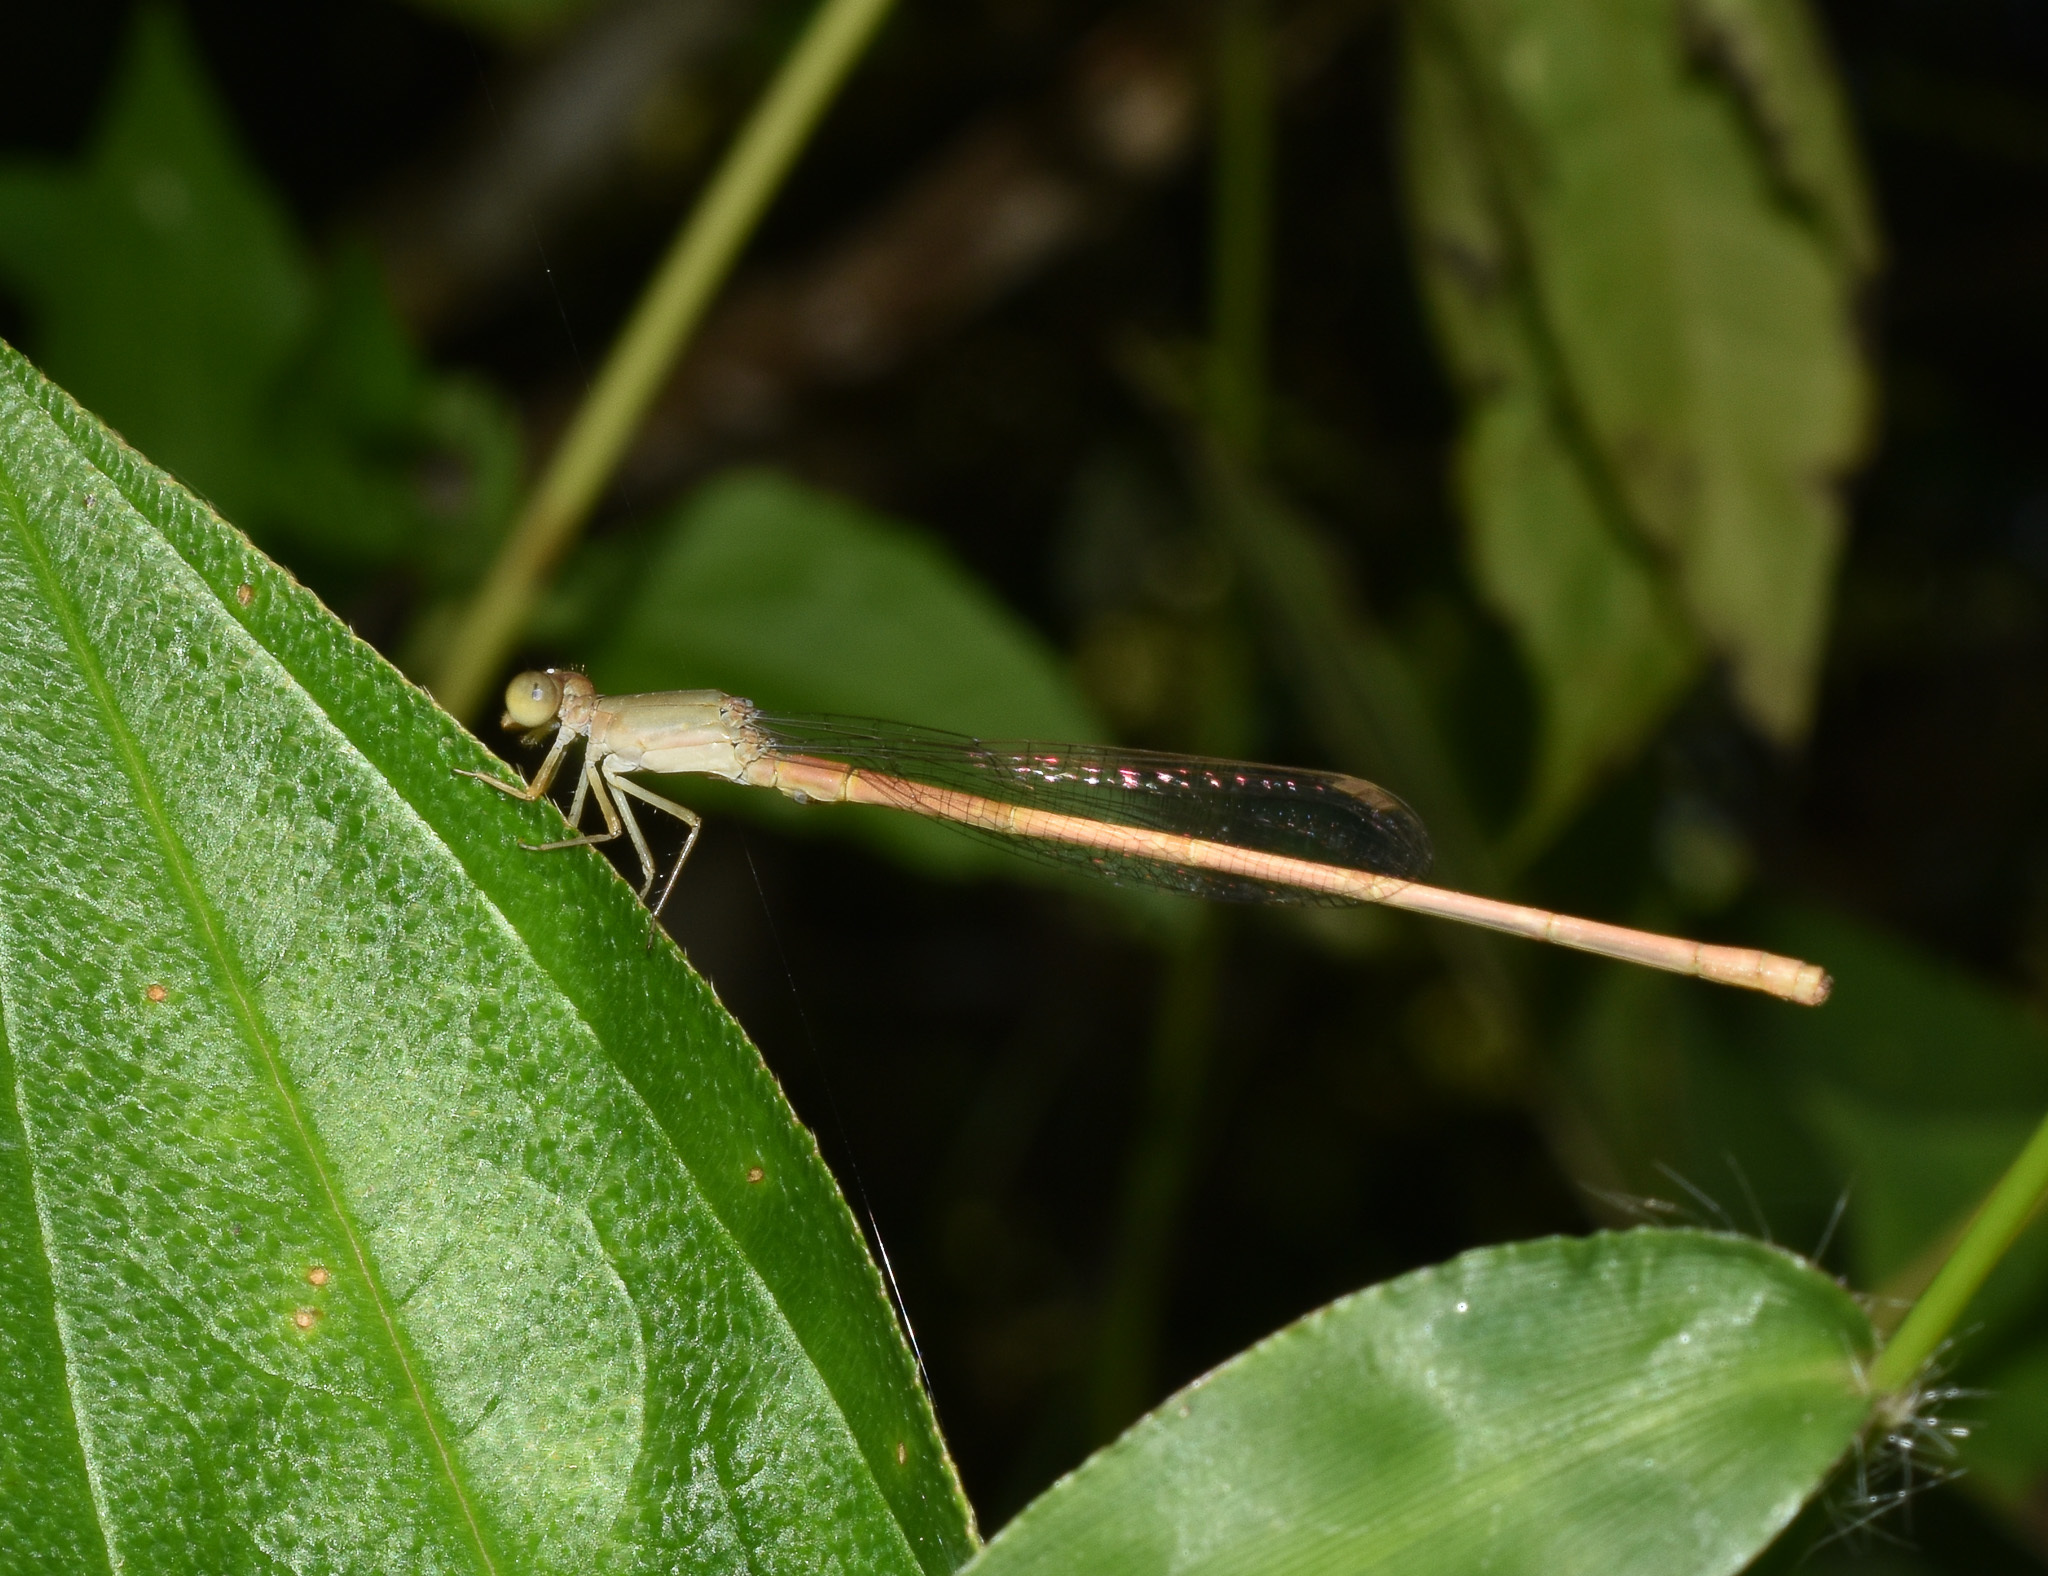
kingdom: Animalia
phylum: Arthropoda
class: Insecta
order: Odonata
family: Coenagrionidae
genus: Ceriagrion
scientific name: Ceriagrion olivaceum
